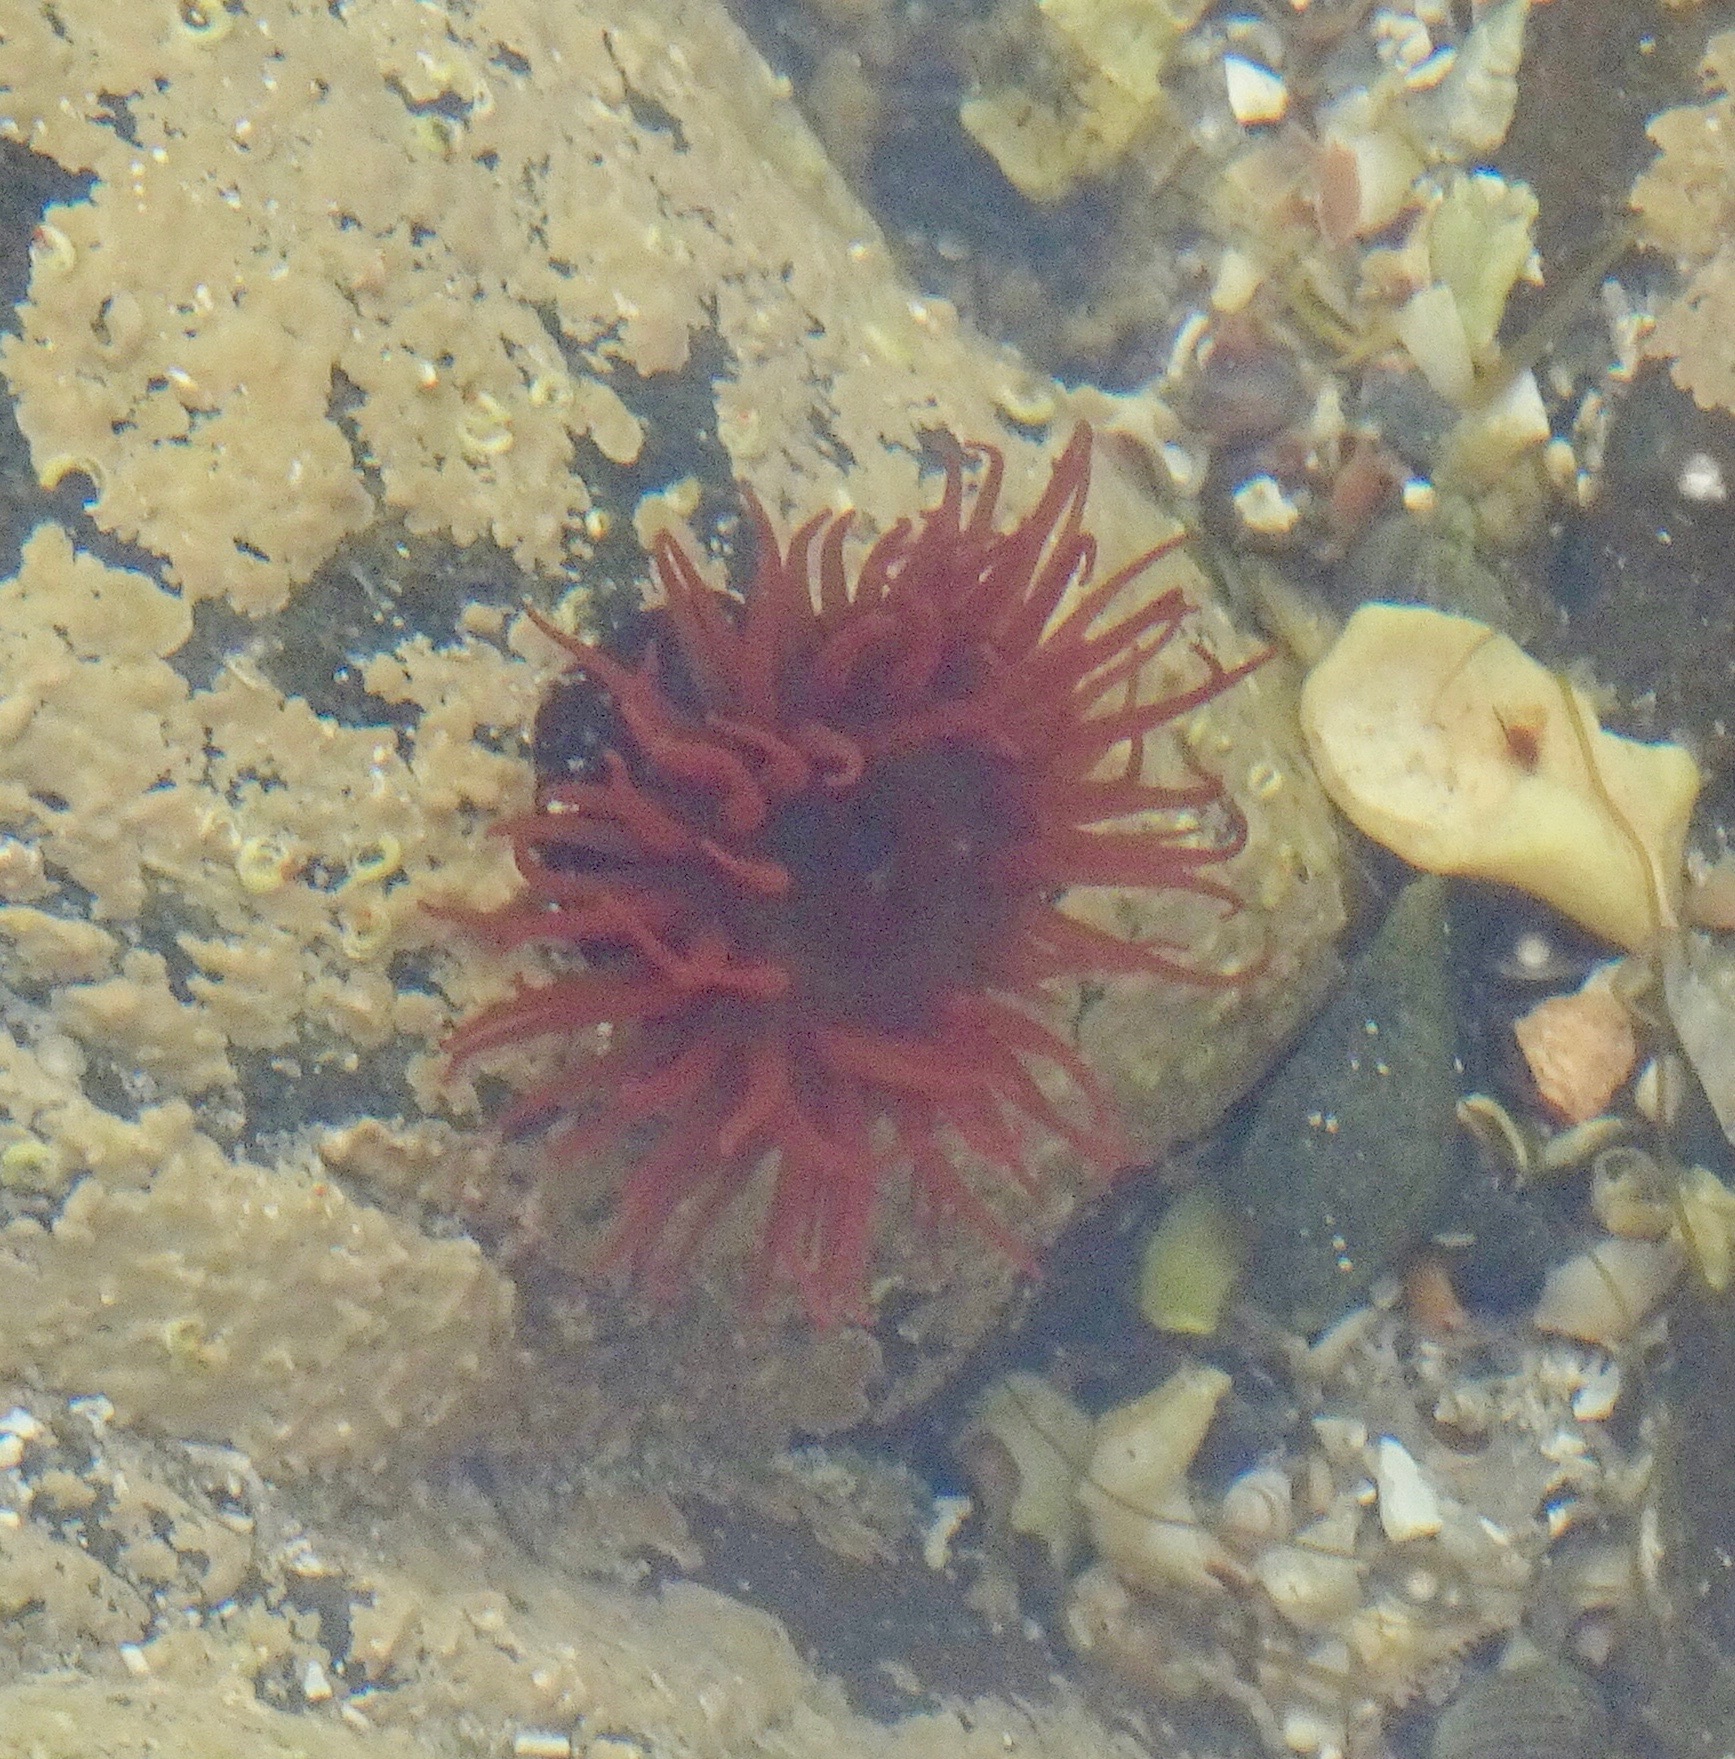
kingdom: Animalia
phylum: Cnidaria
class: Anthozoa
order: Actiniaria
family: Actiniidae
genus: Actinia
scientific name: Actinia equina
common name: Beadlet anemone
